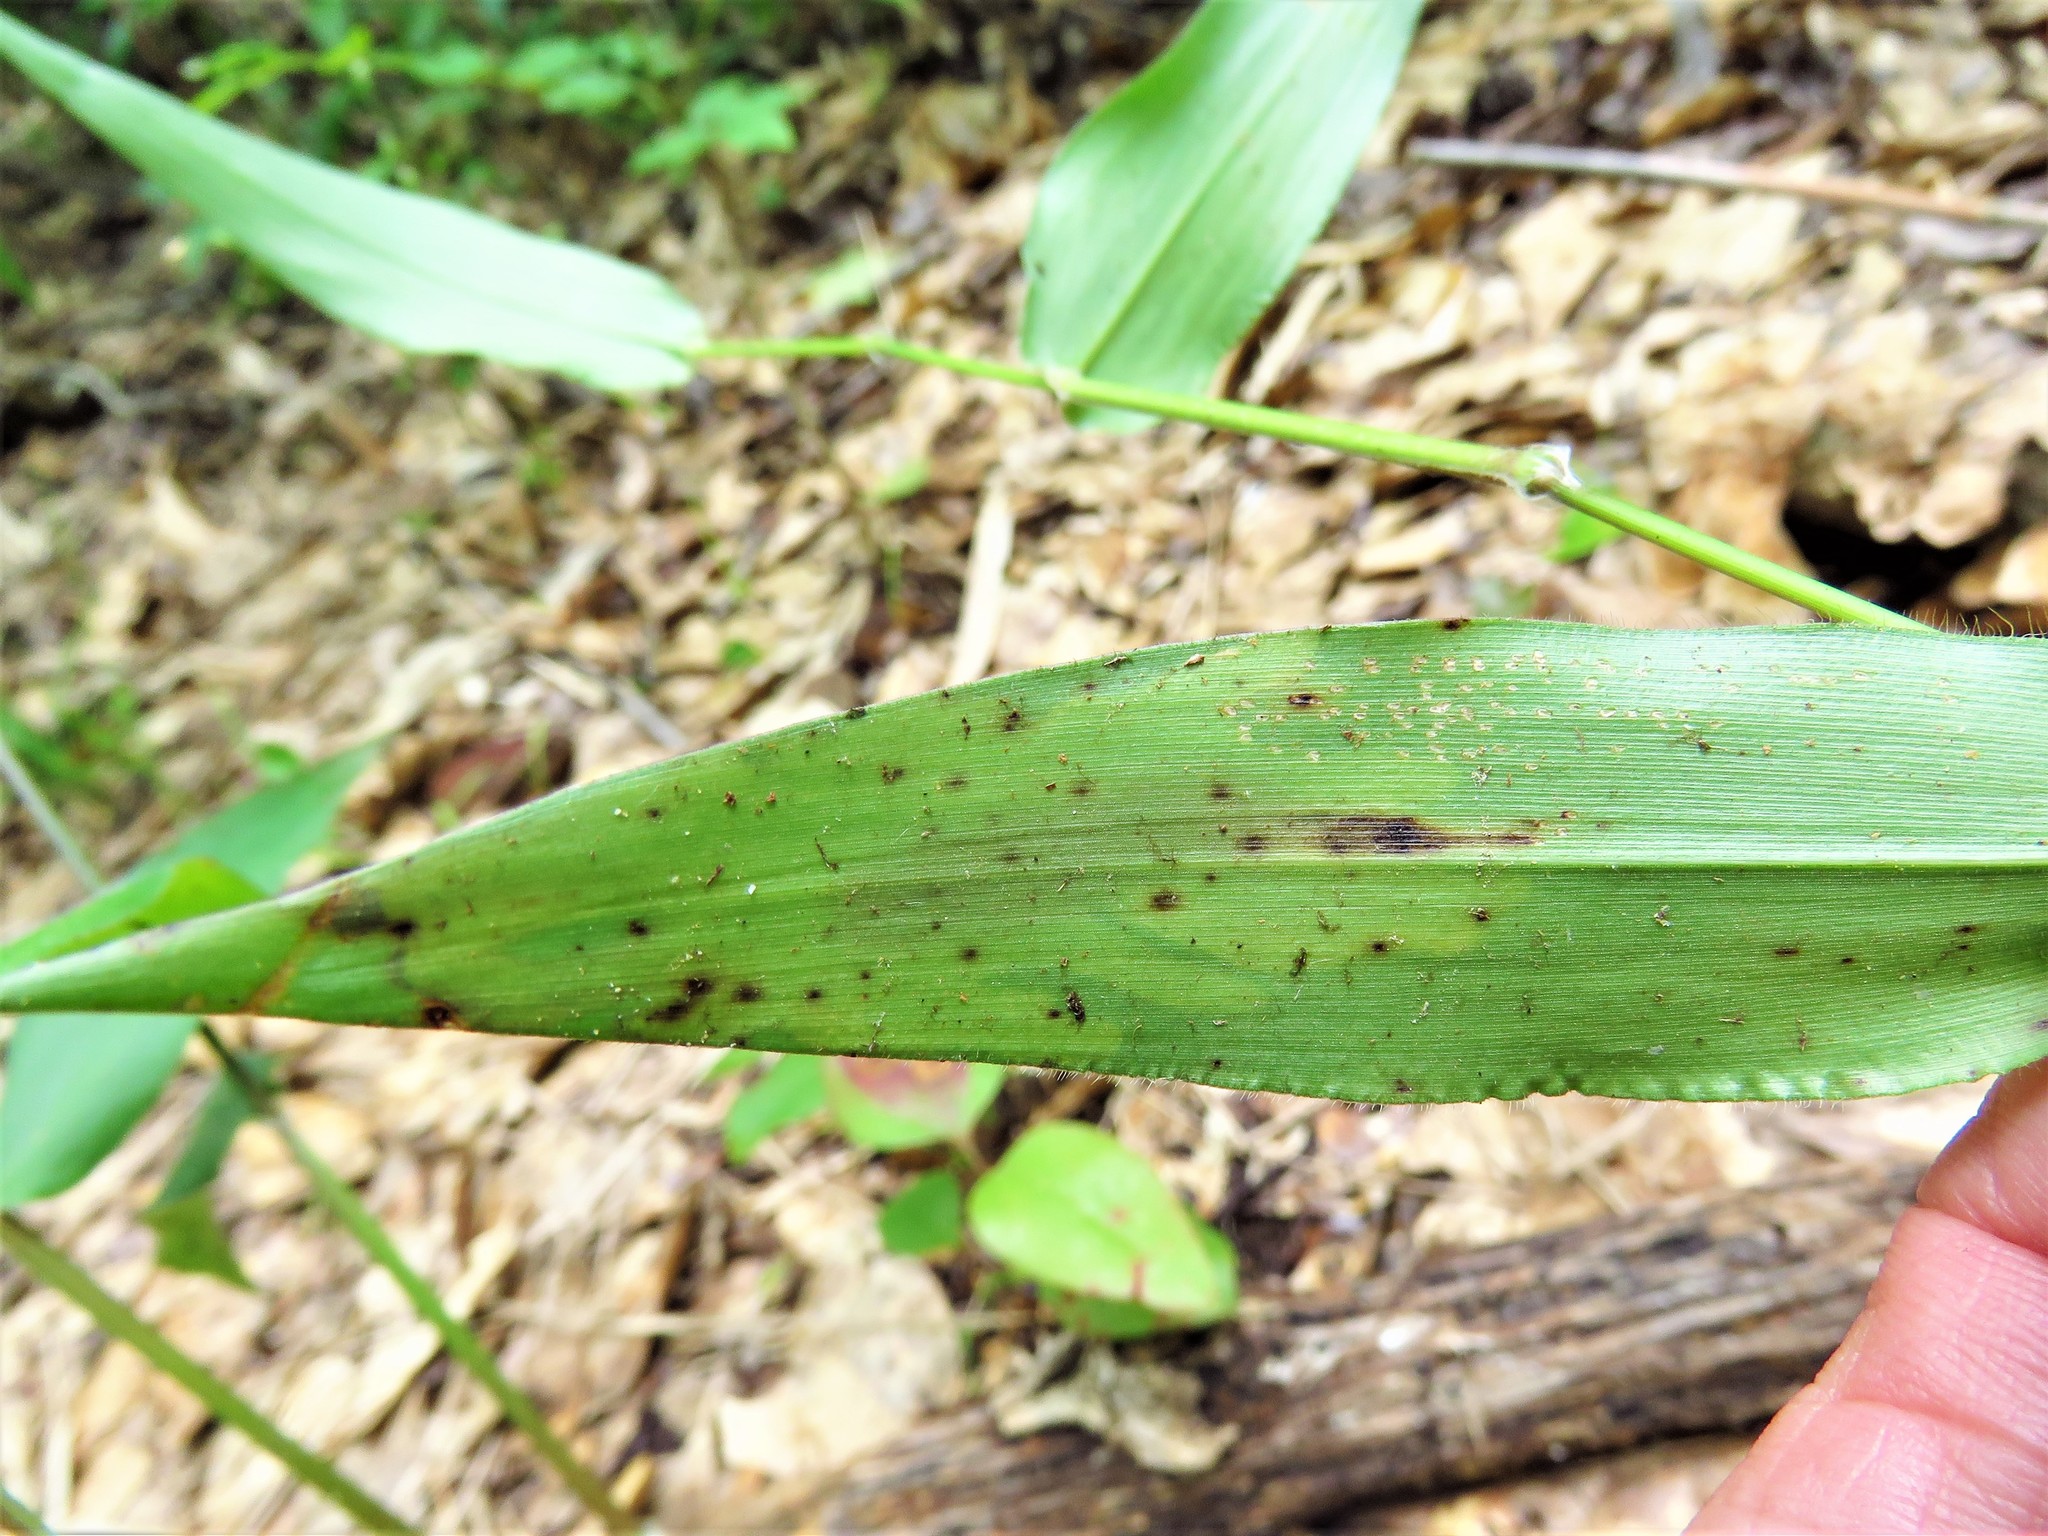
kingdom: Animalia
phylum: Arthropoda
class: Insecta
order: Diptera
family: Agromyzidae
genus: Cerodontha
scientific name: Cerodontha angulata
